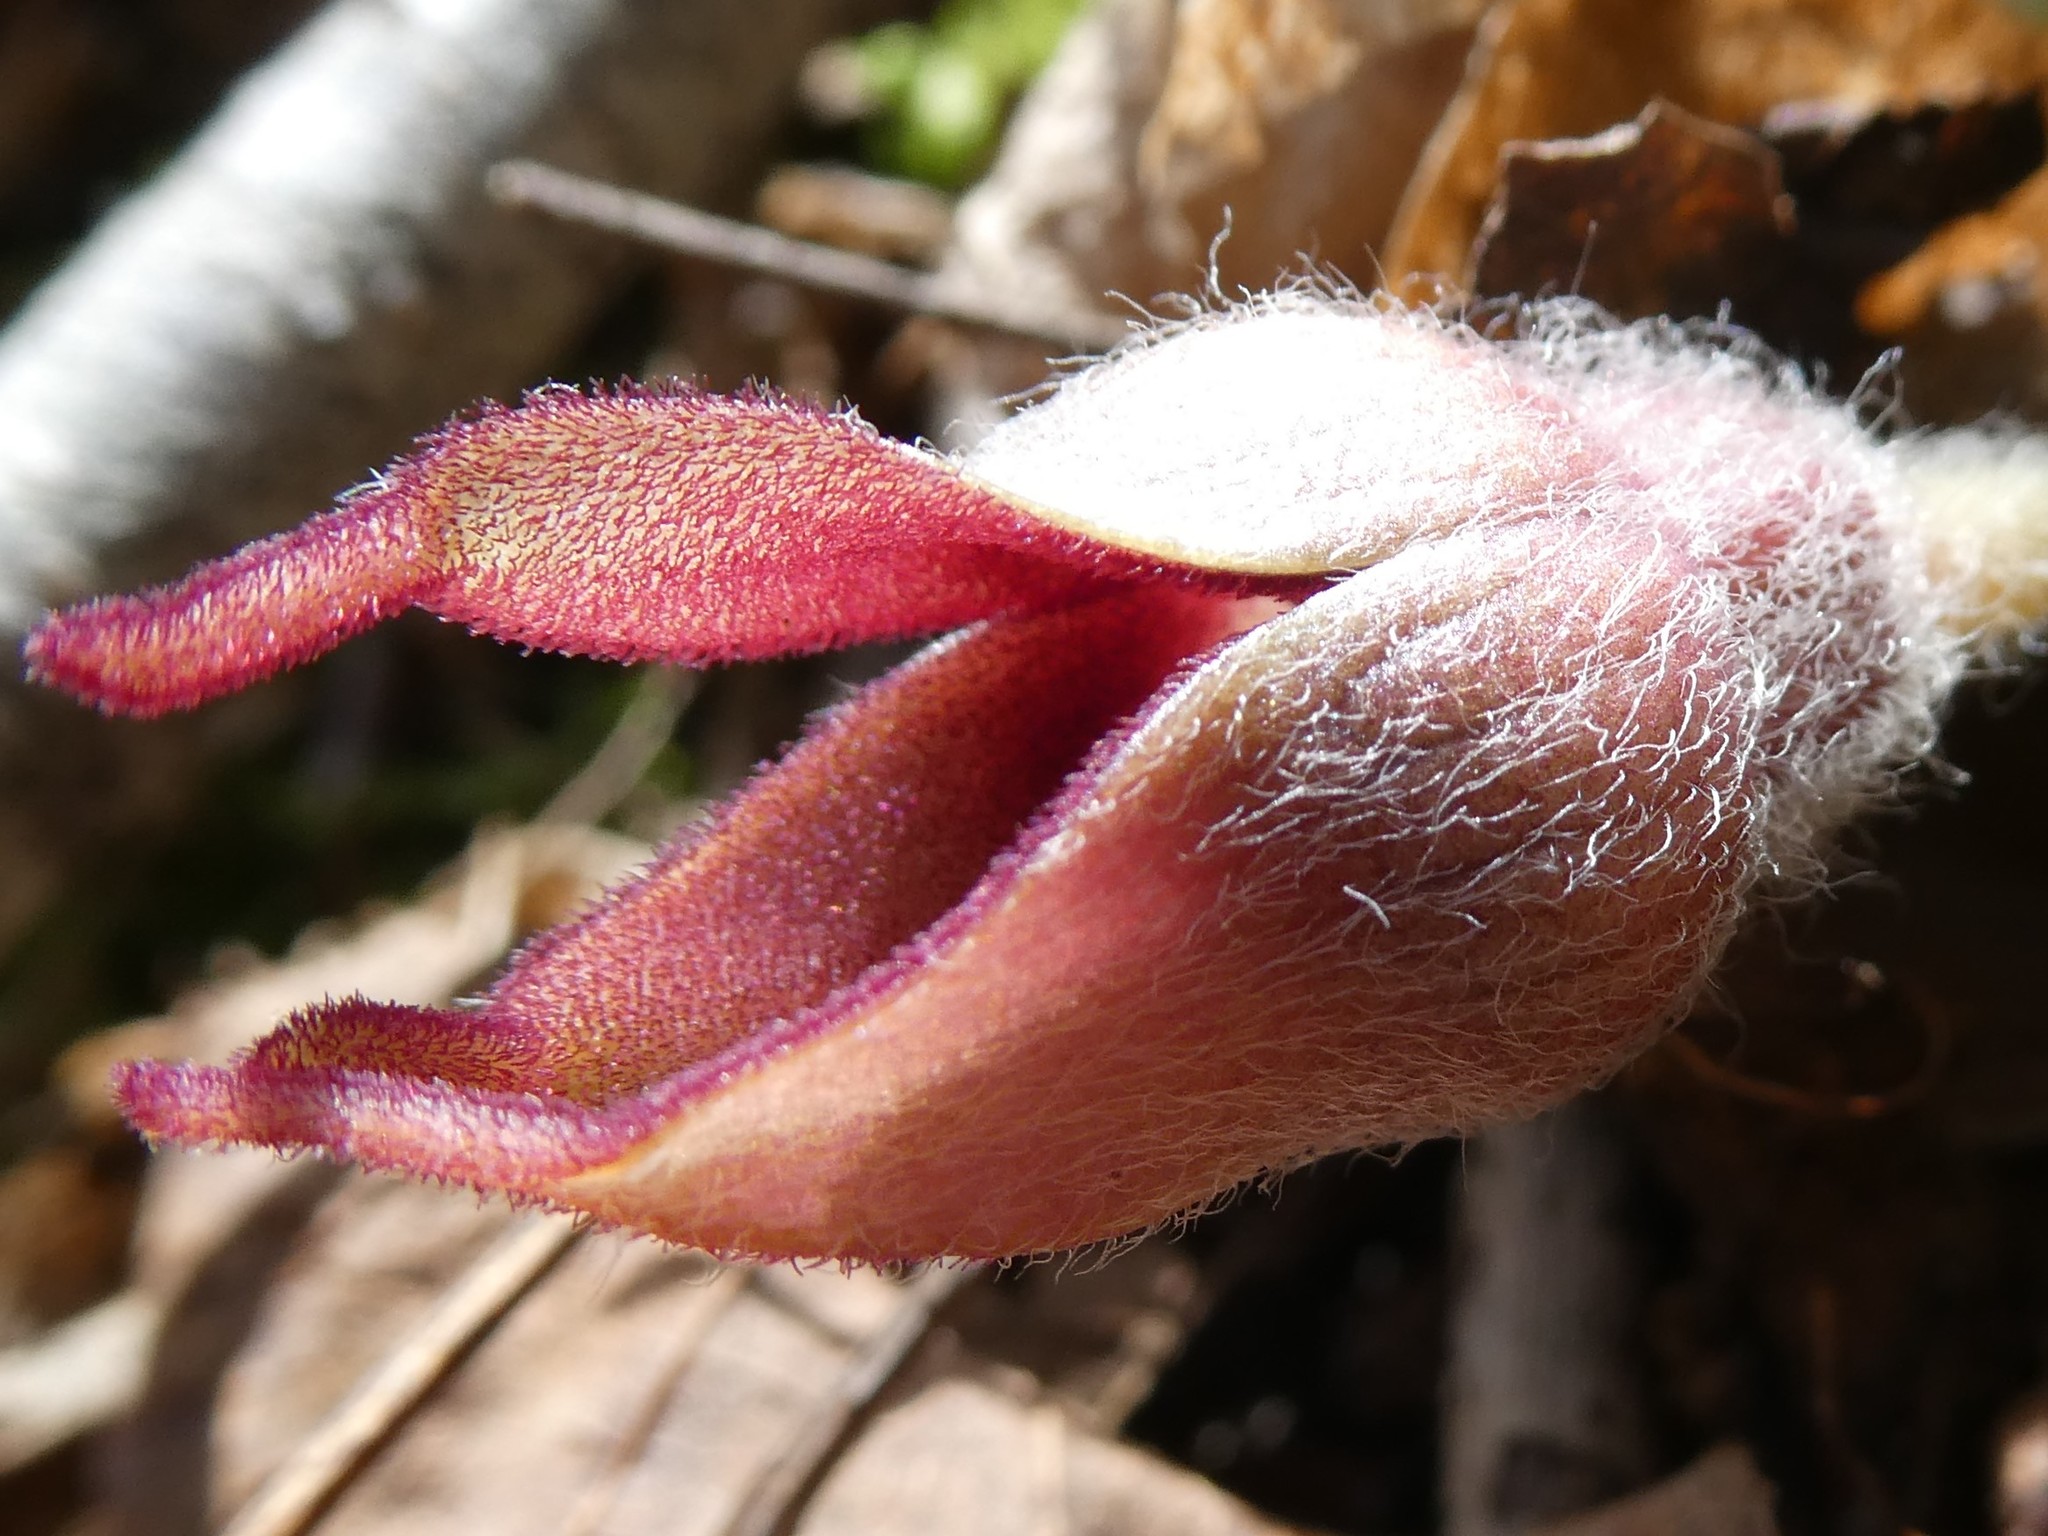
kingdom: Plantae
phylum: Tracheophyta
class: Magnoliopsida
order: Piperales
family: Aristolochiaceae
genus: Asarum
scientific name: Asarum canadense
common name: Wild ginger
